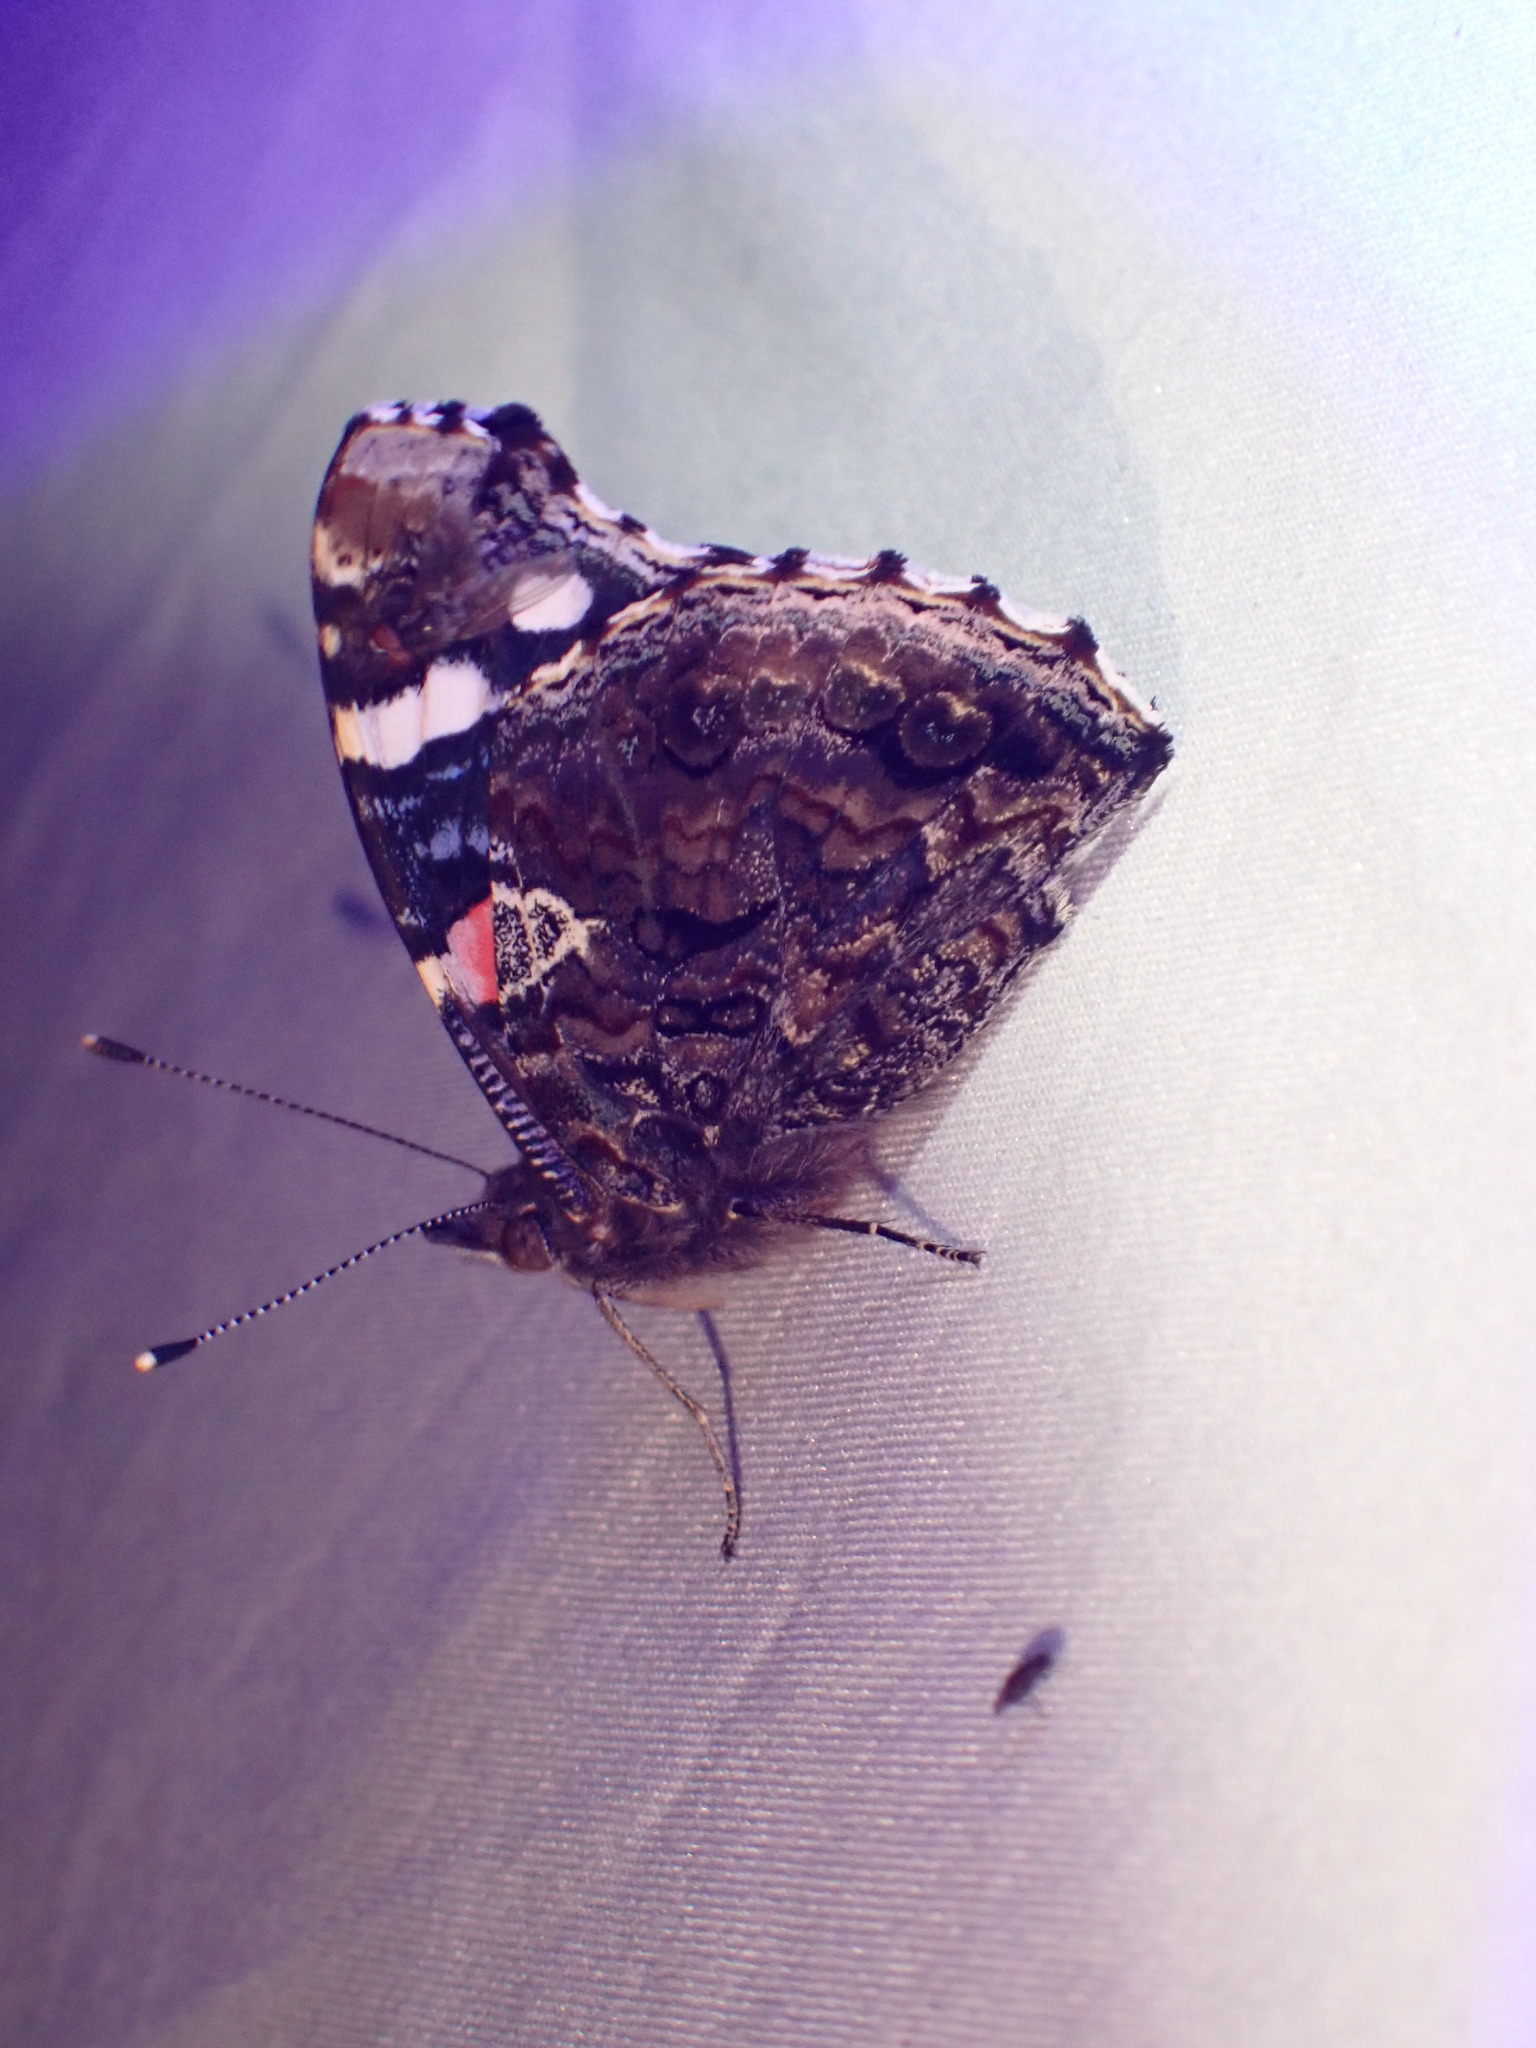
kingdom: Animalia
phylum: Arthropoda
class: Insecta
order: Lepidoptera
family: Nymphalidae
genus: Vanessa
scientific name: Vanessa atalanta
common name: Red admiral
